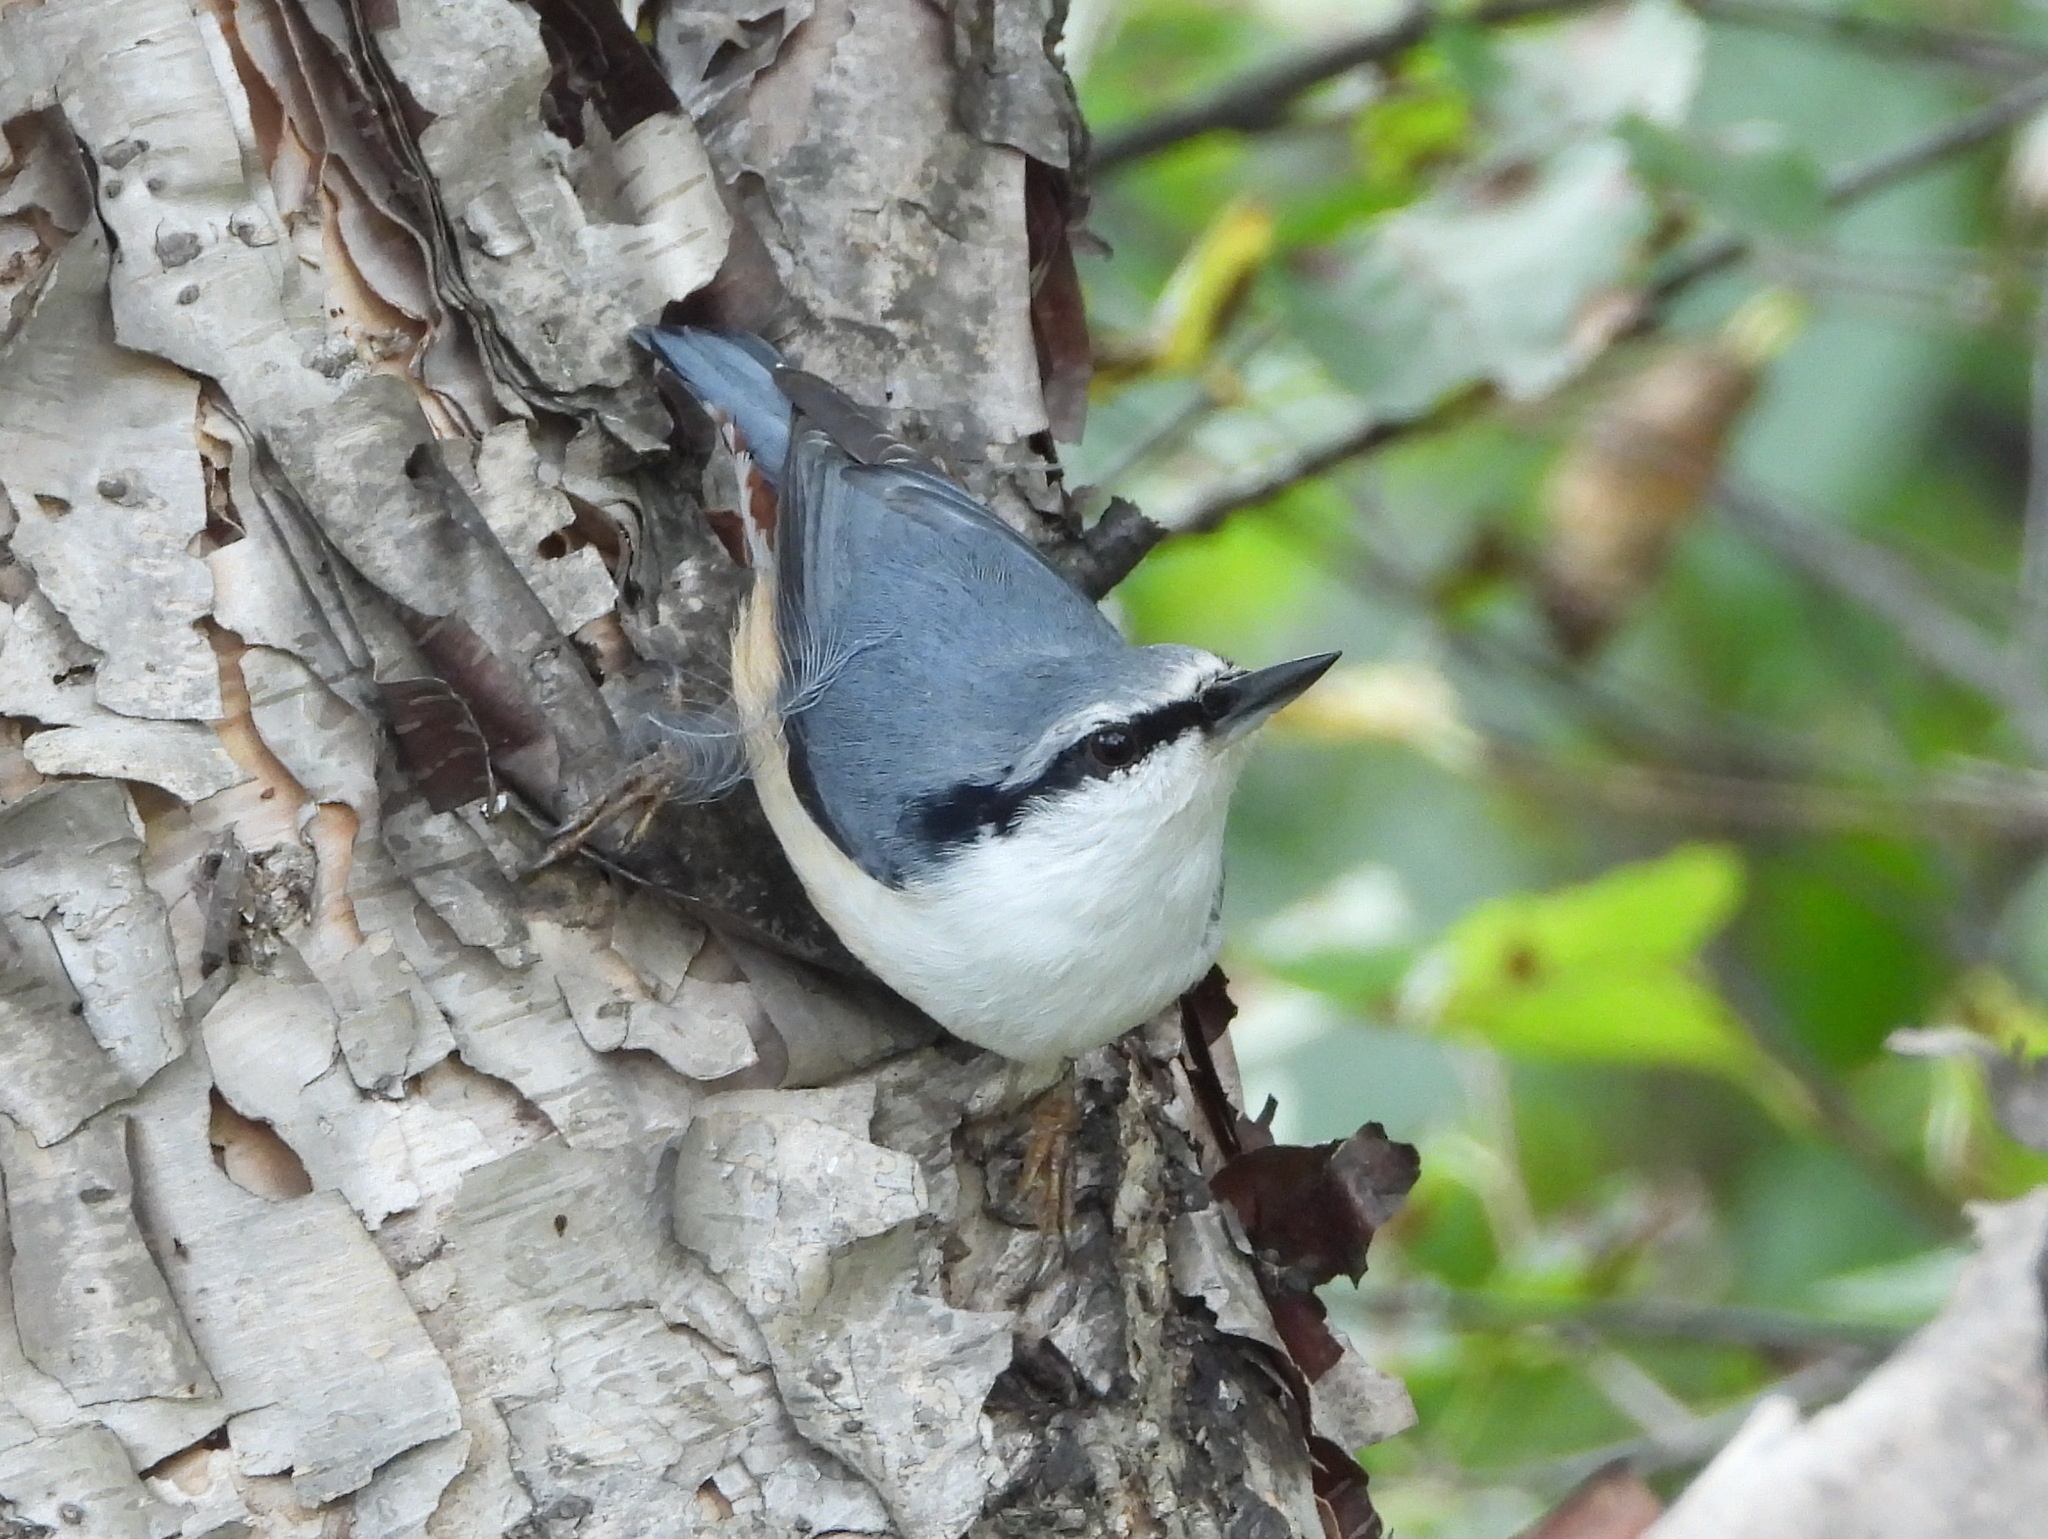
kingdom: Animalia
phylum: Chordata
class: Aves
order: Passeriformes
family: Sittidae
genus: Sitta
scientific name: Sitta europaea
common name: Eurasian nuthatch
